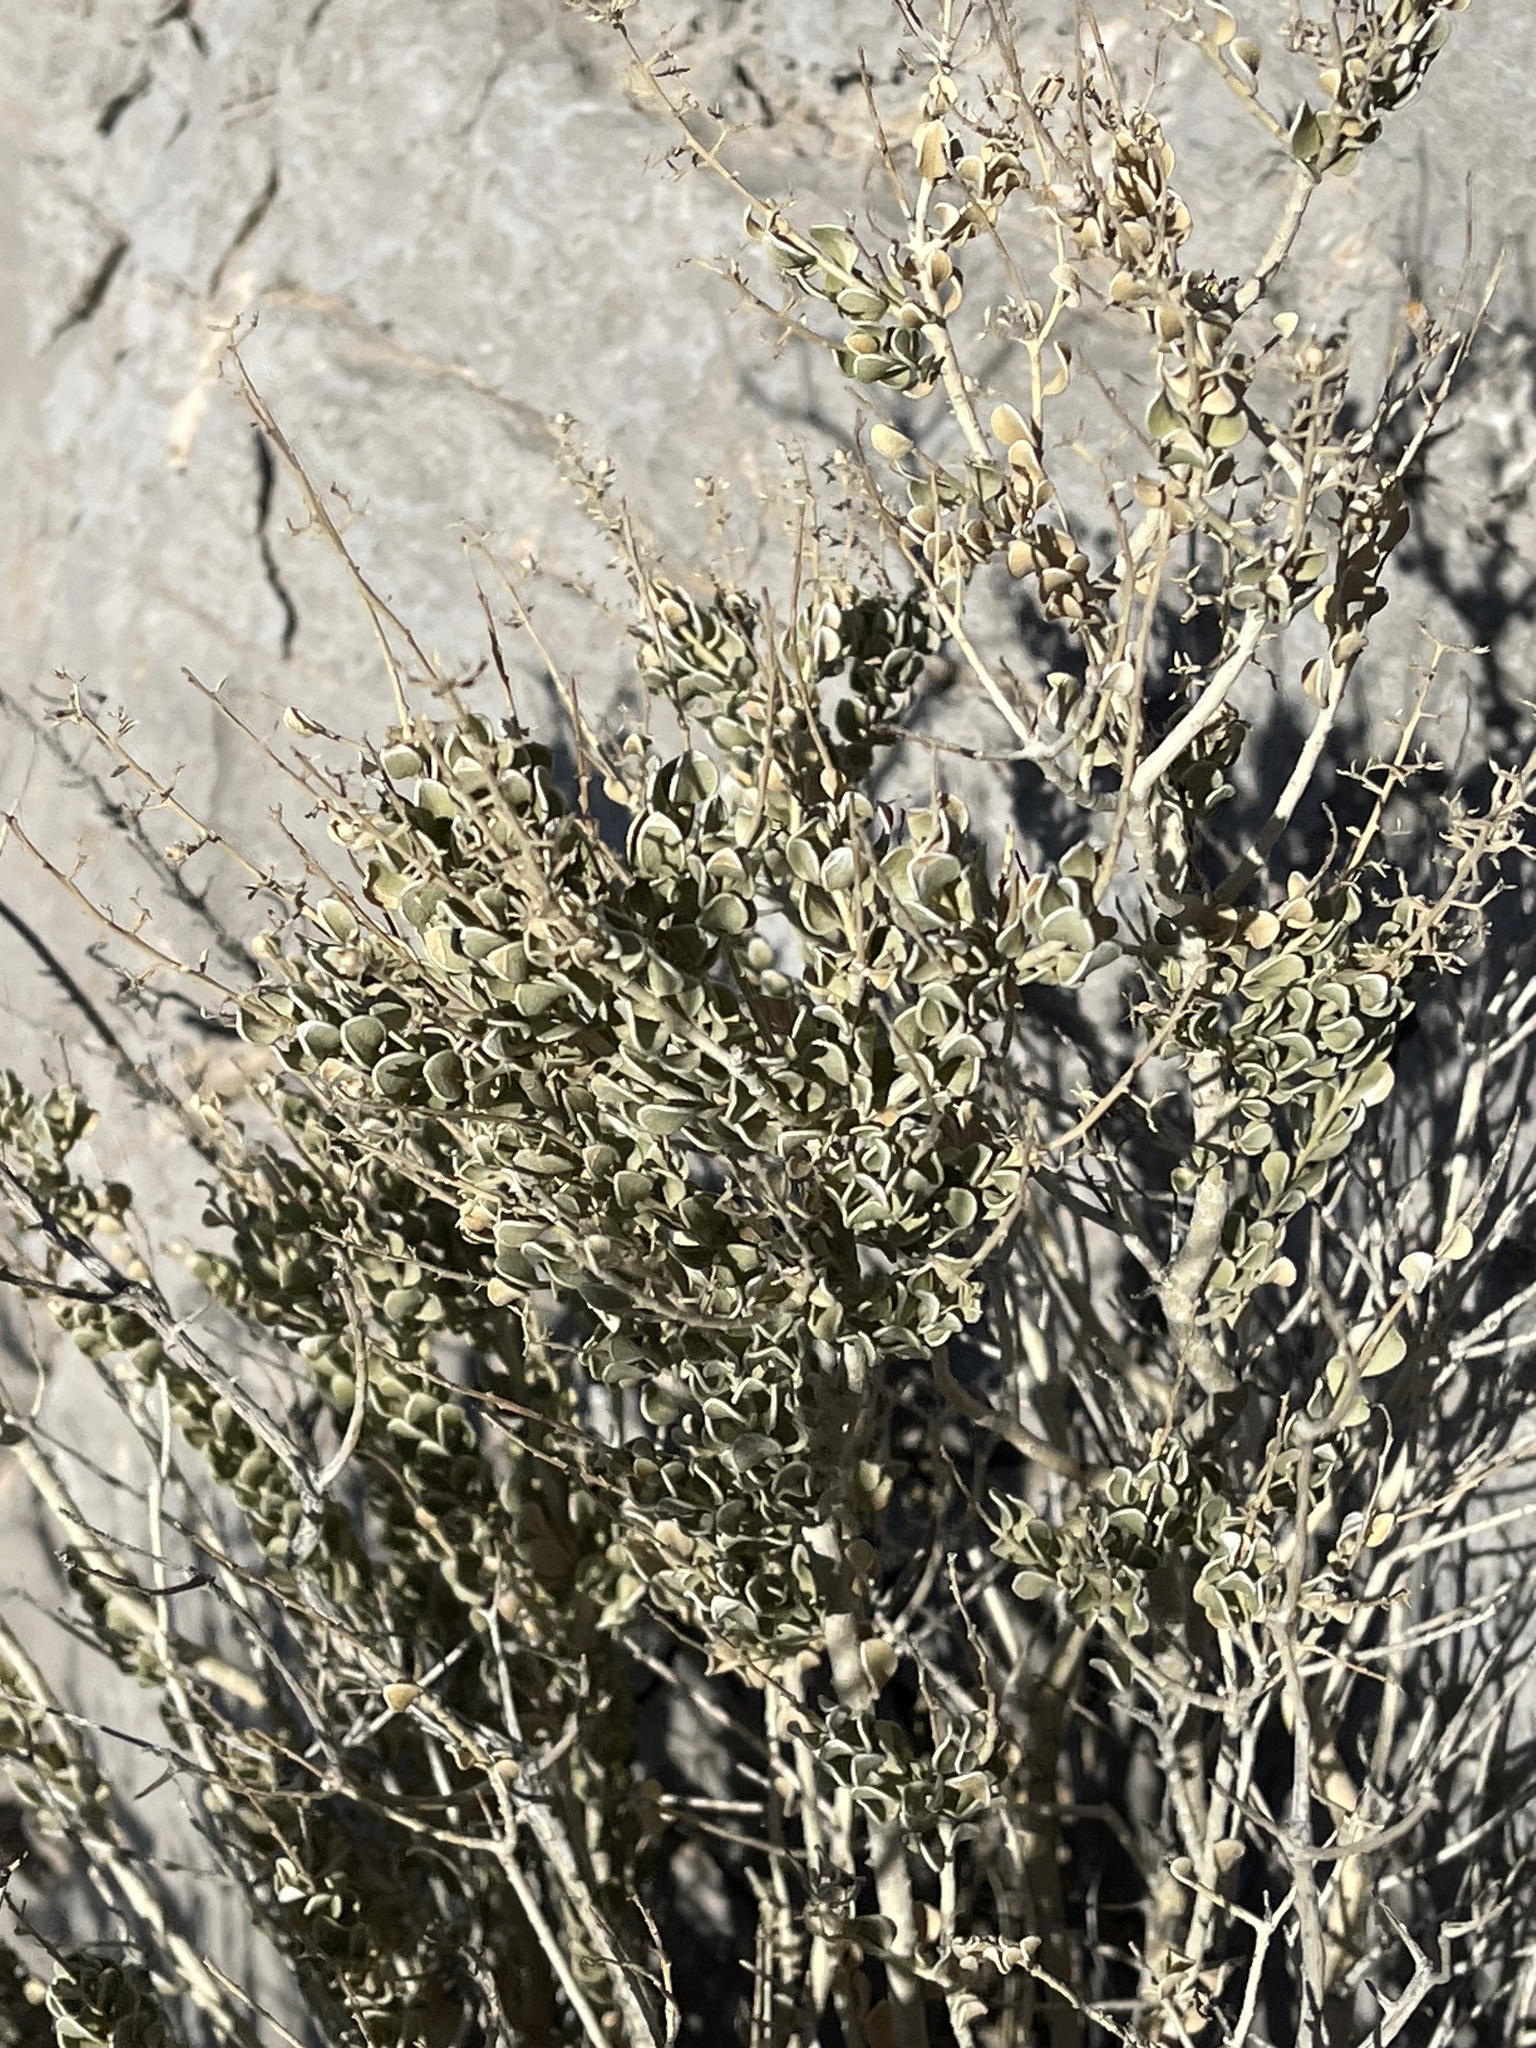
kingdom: Plantae
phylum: Tracheophyta
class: Magnoliopsida
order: Celastrales
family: Celastraceae
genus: Mortonia
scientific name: Mortonia utahensis
